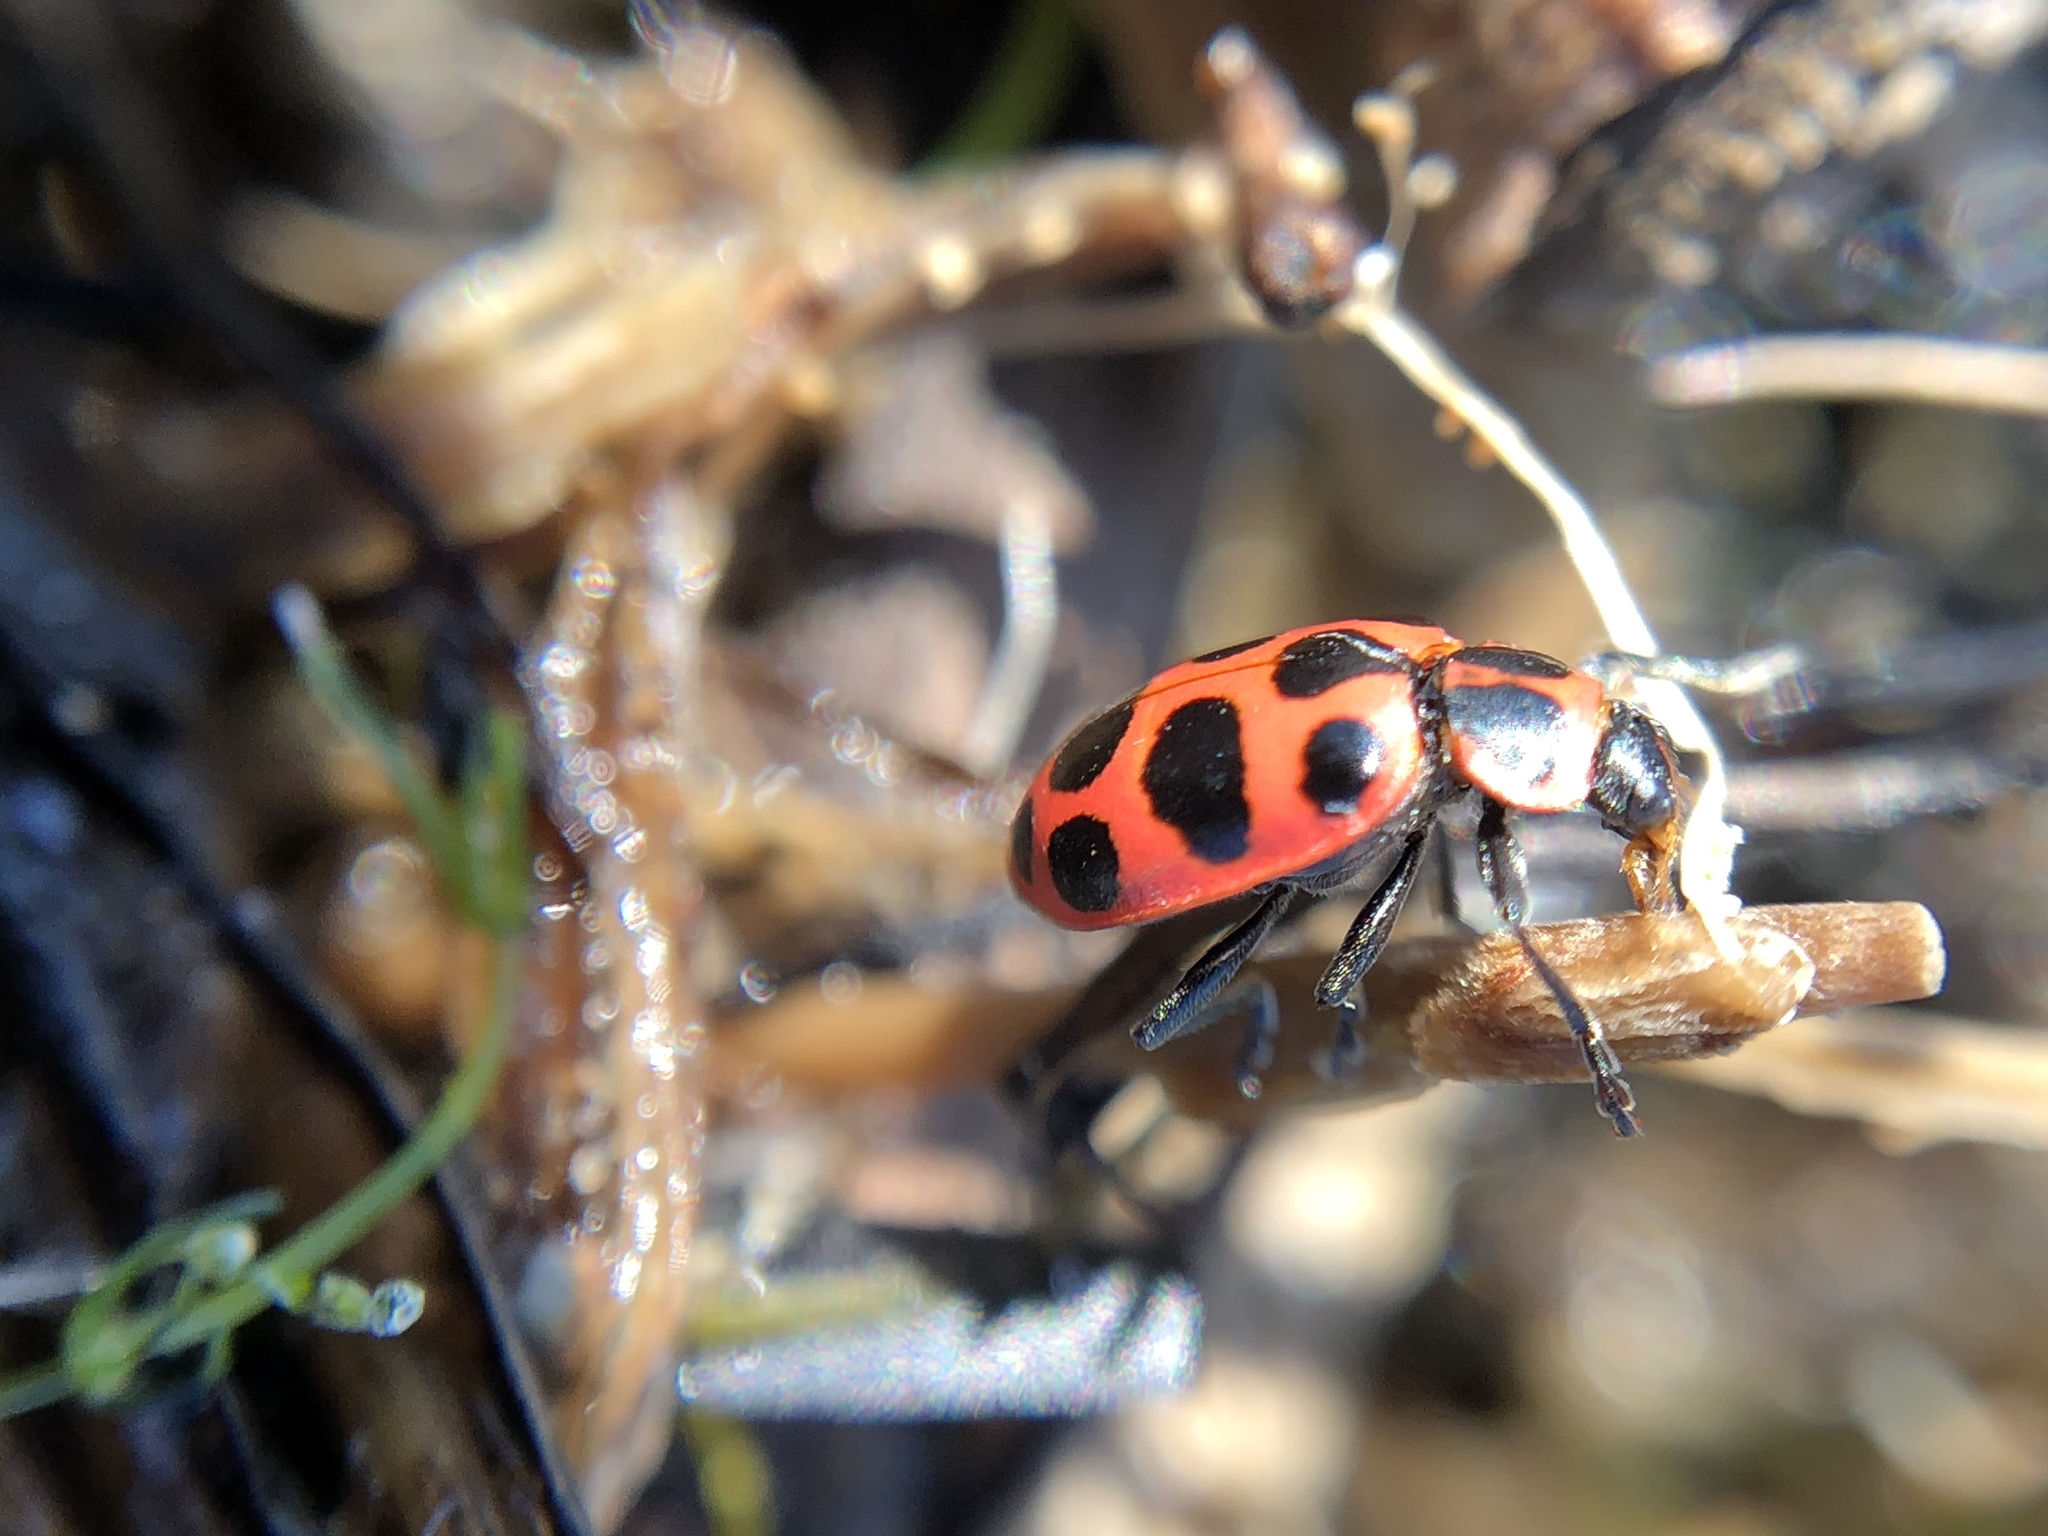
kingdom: Animalia
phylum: Arthropoda
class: Insecta
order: Coleoptera
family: Coccinellidae
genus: Coleomegilla
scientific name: Coleomegilla maculata
